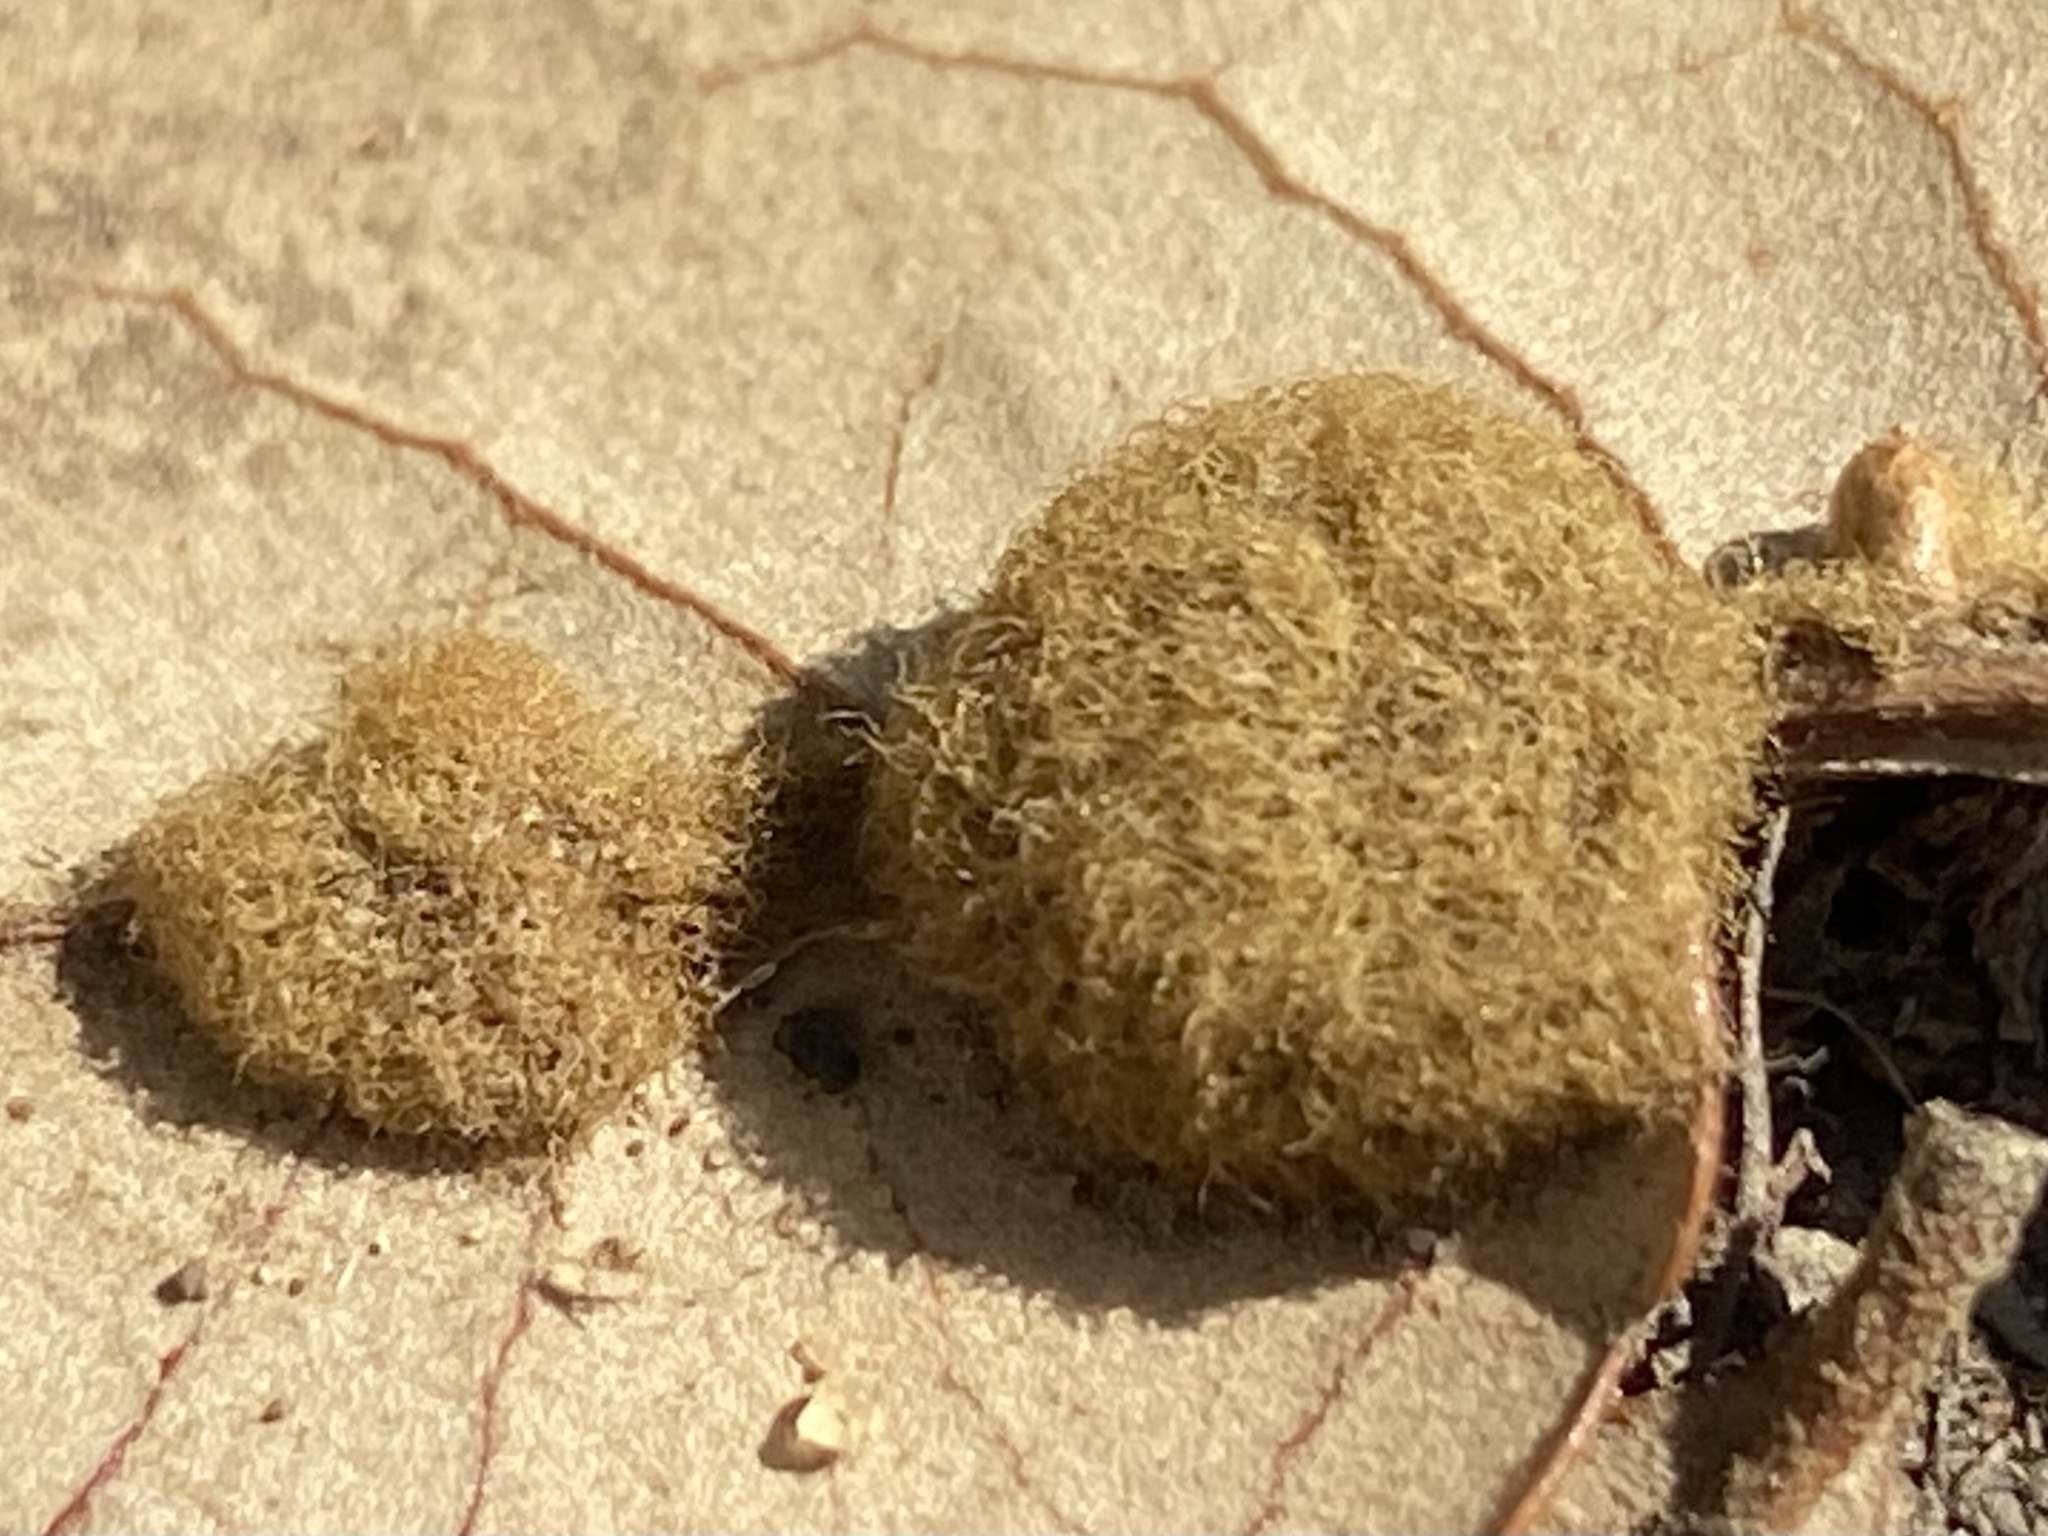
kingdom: Animalia
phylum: Arthropoda
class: Insecta
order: Hymenoptera
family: Cynipidae
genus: Andricus
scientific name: Andricus Druon quercuslanigerum
